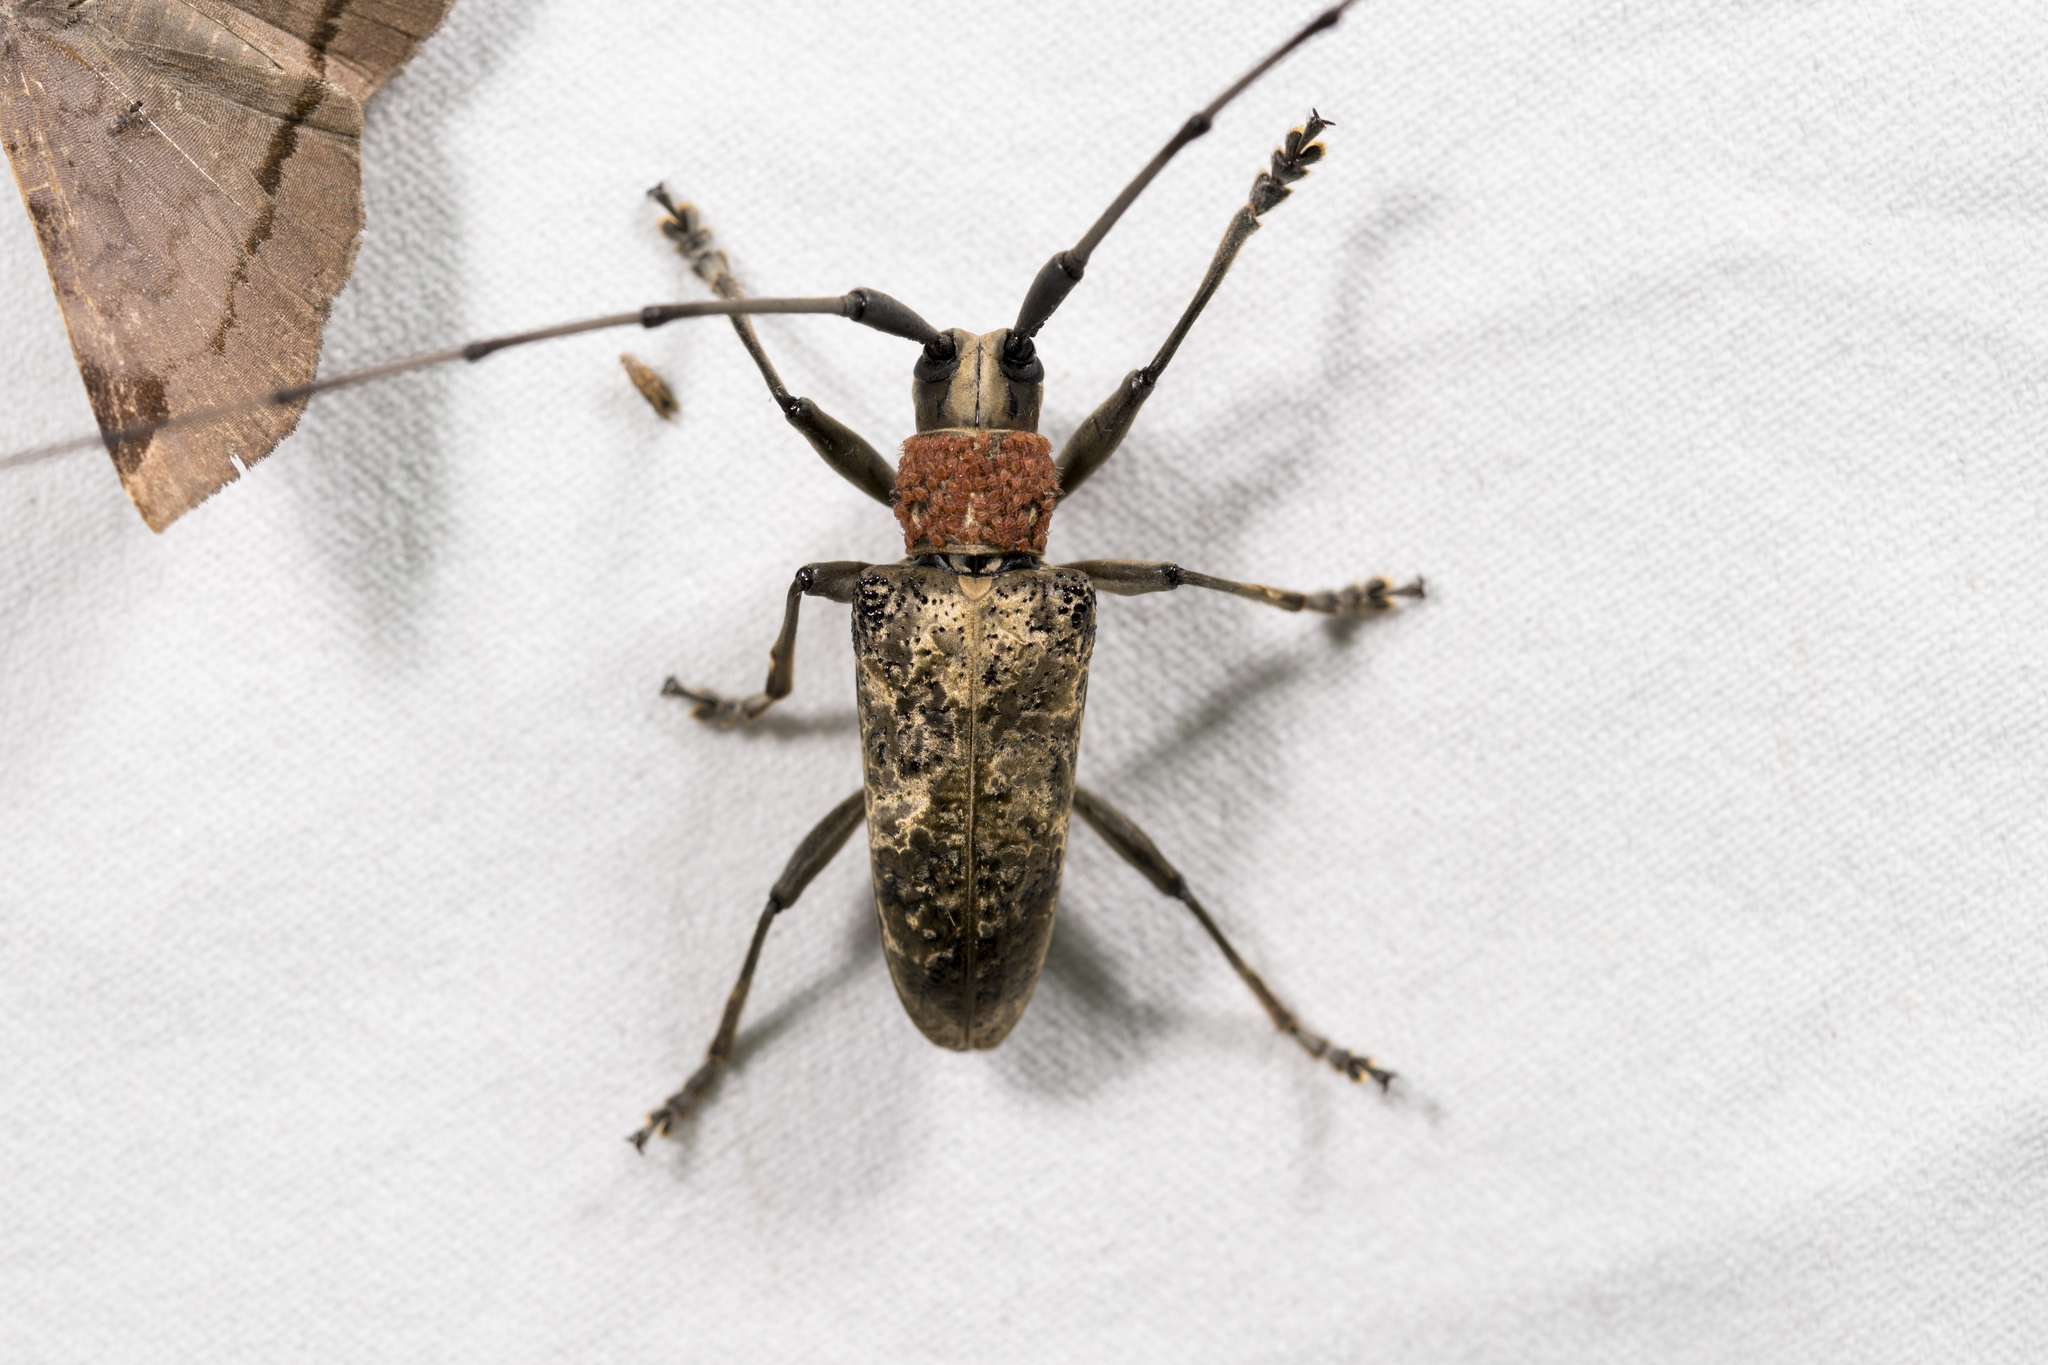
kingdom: Animalia
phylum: Arthropoda
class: Insecta
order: Coleoptera
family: Cerambycidae
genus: Acalolepta
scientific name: Acalolepta permutans
